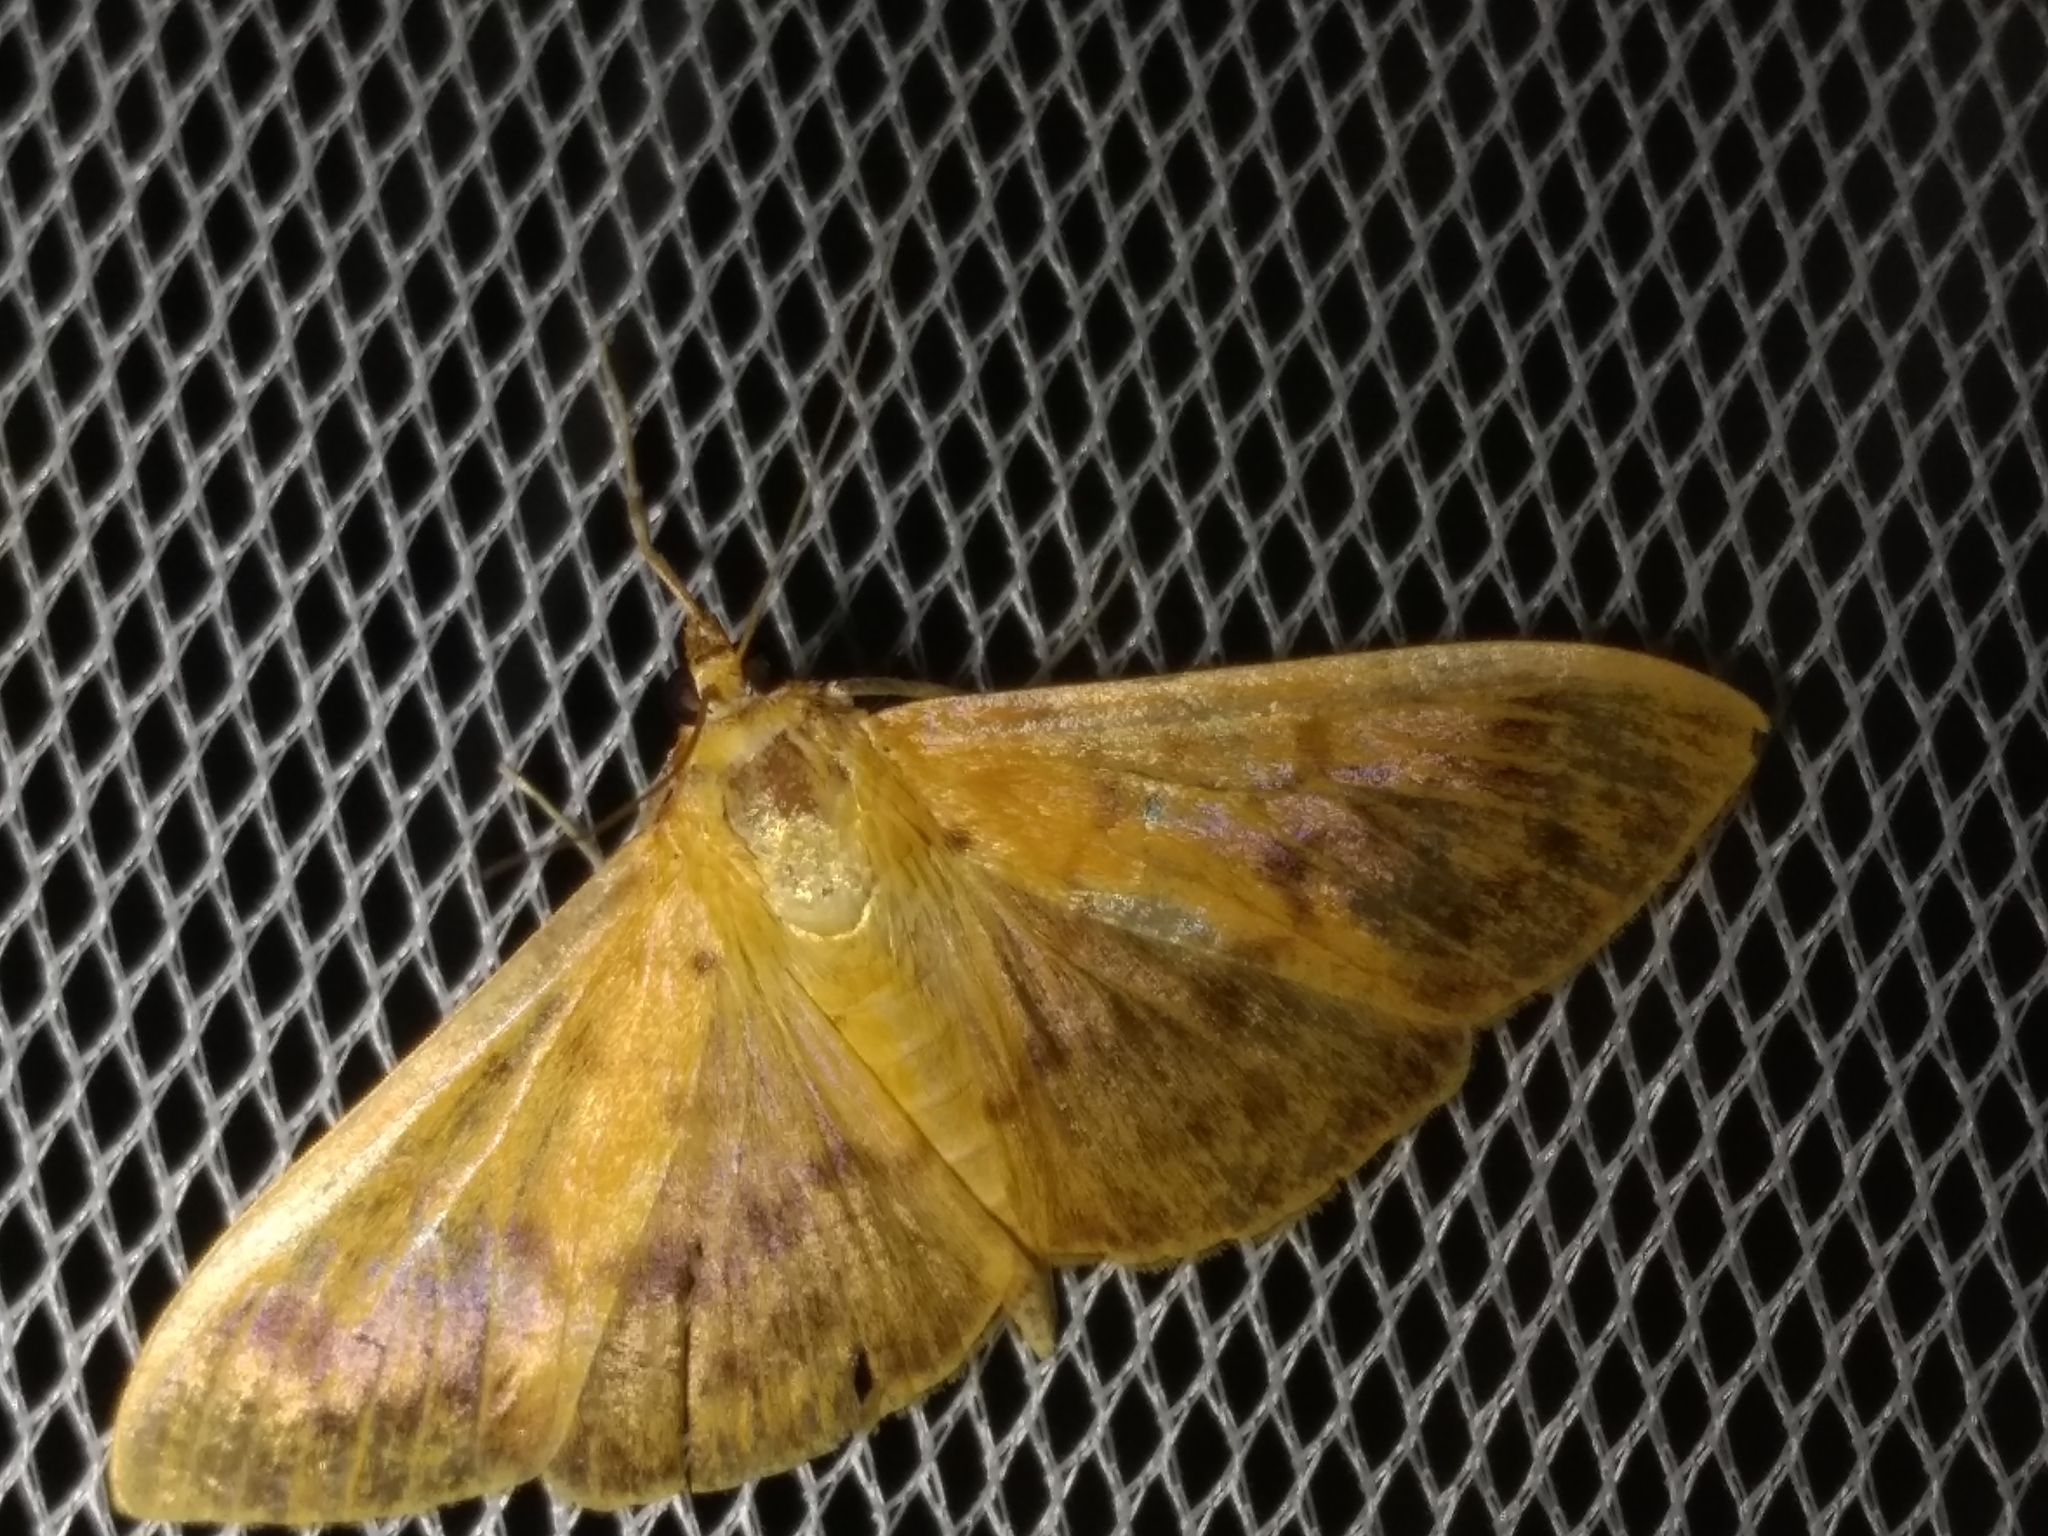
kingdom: Animalia
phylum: Arthropoda
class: Insecta
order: Lepidoptera
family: Crambidae
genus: Pleuroptya
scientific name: Pleuroptya balteata
